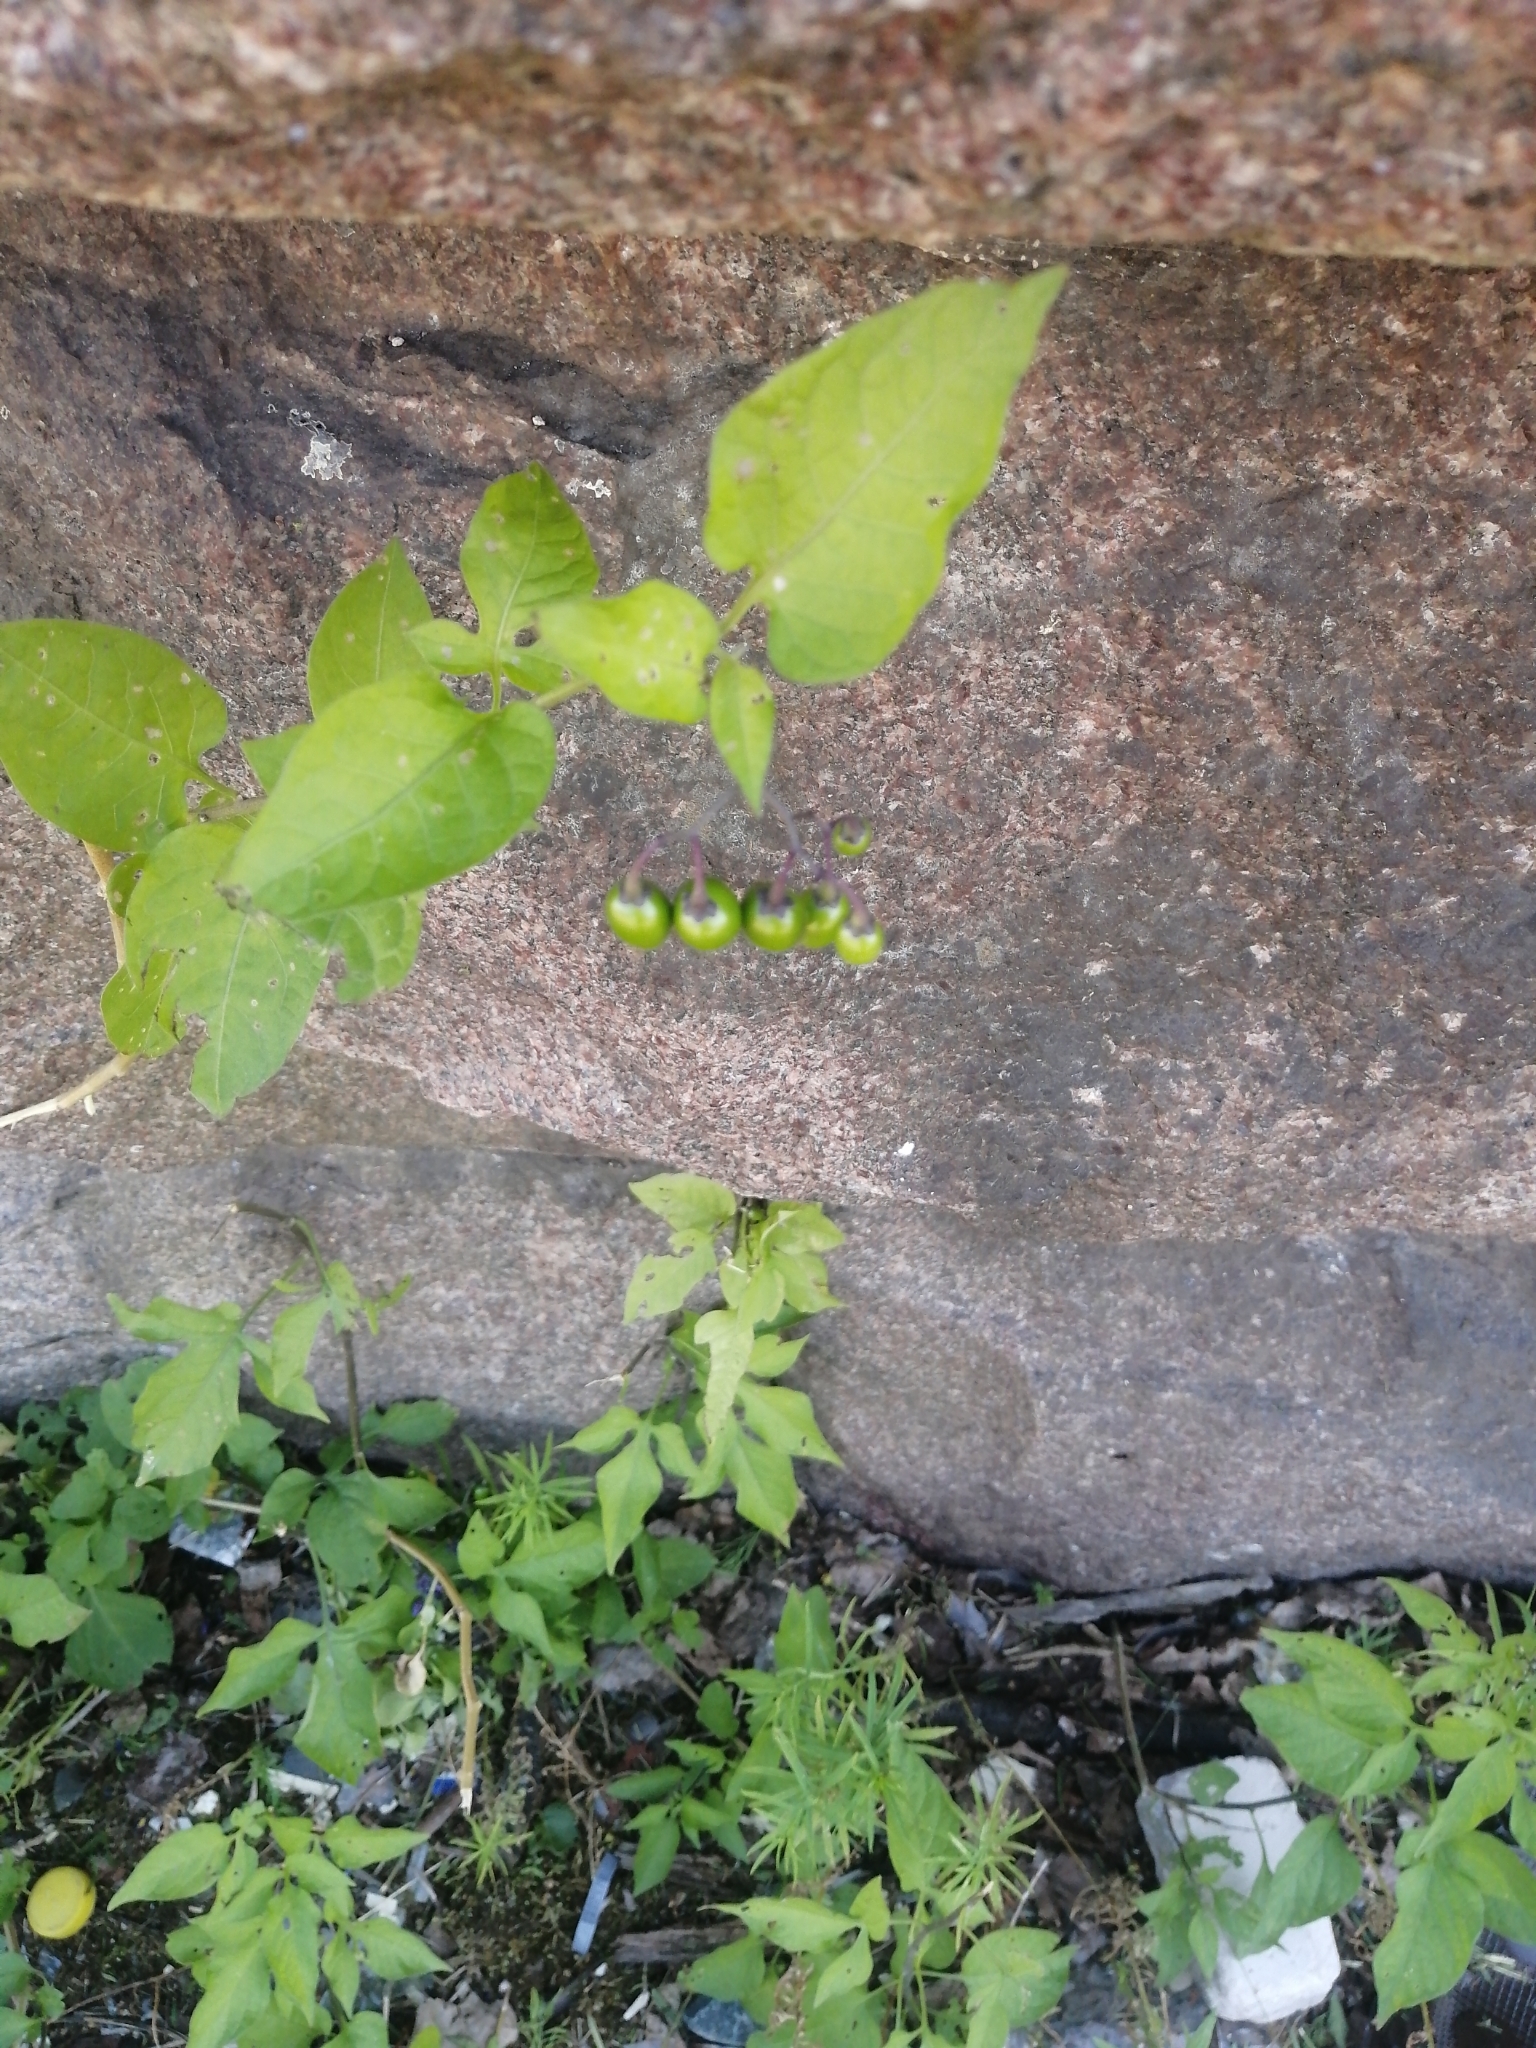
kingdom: Plantae
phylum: Tracheophyta
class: Magnoliopsida
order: Solanales
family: Solanaceae
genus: Solanum
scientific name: Solanum dulcamara
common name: Climbing nightshade
